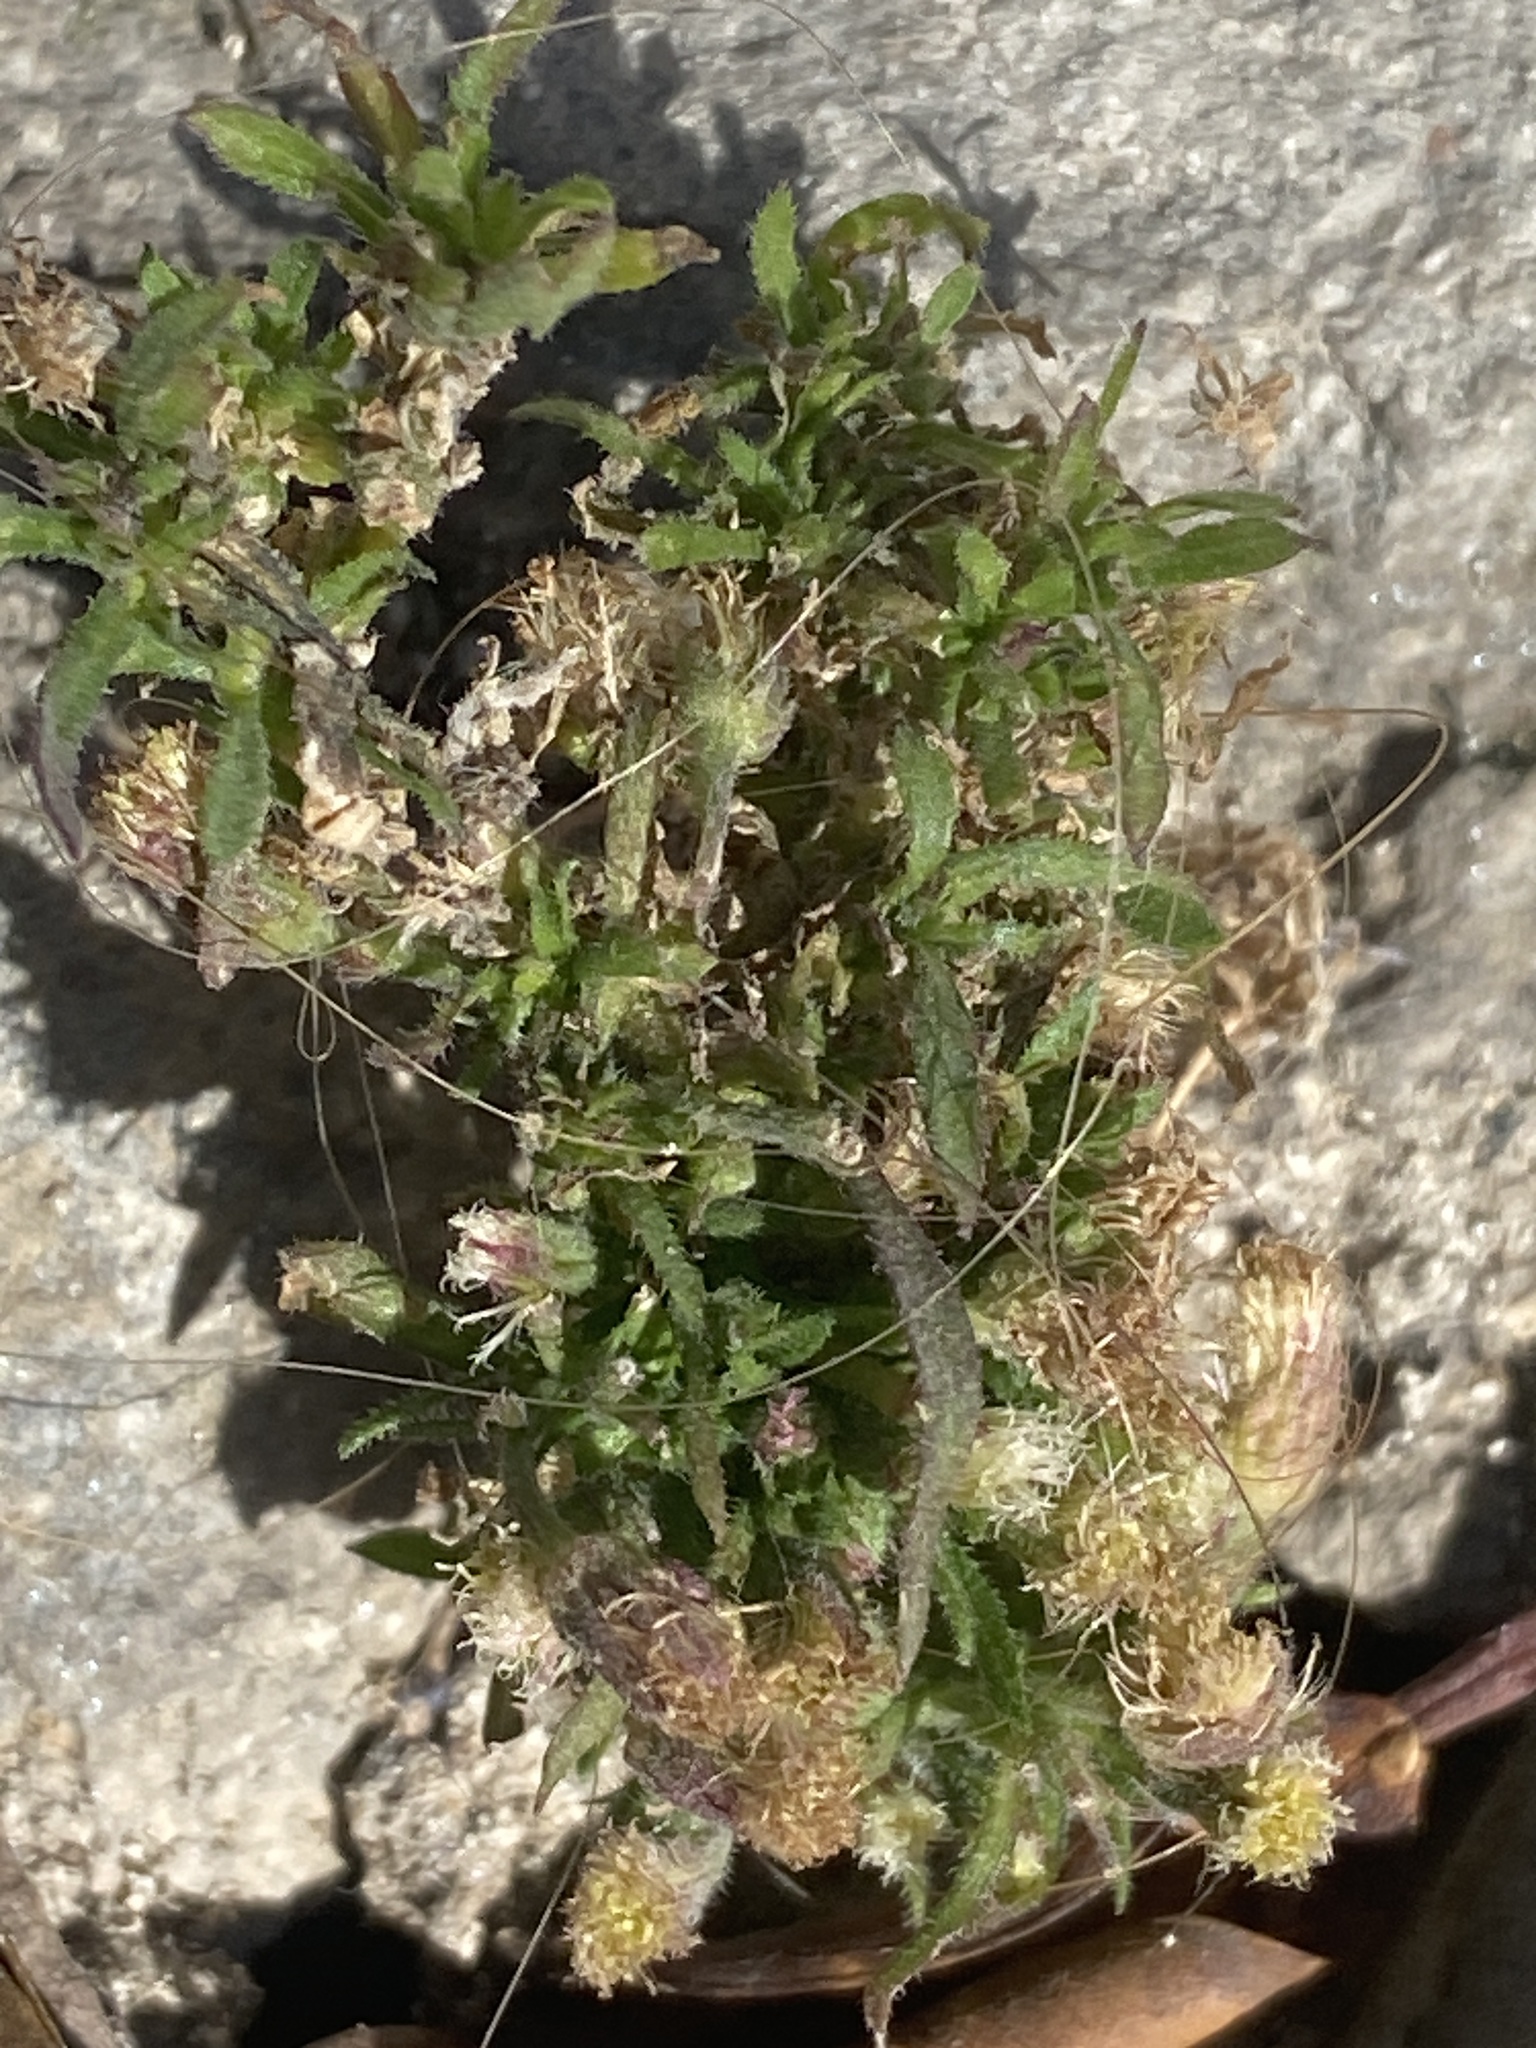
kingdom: Plantae
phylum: Tracheophyta
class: Magnoliopsida
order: Asterales
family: Asteraceae
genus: Dittrichia
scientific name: Dittrichia viscosa
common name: Woody fleabane
